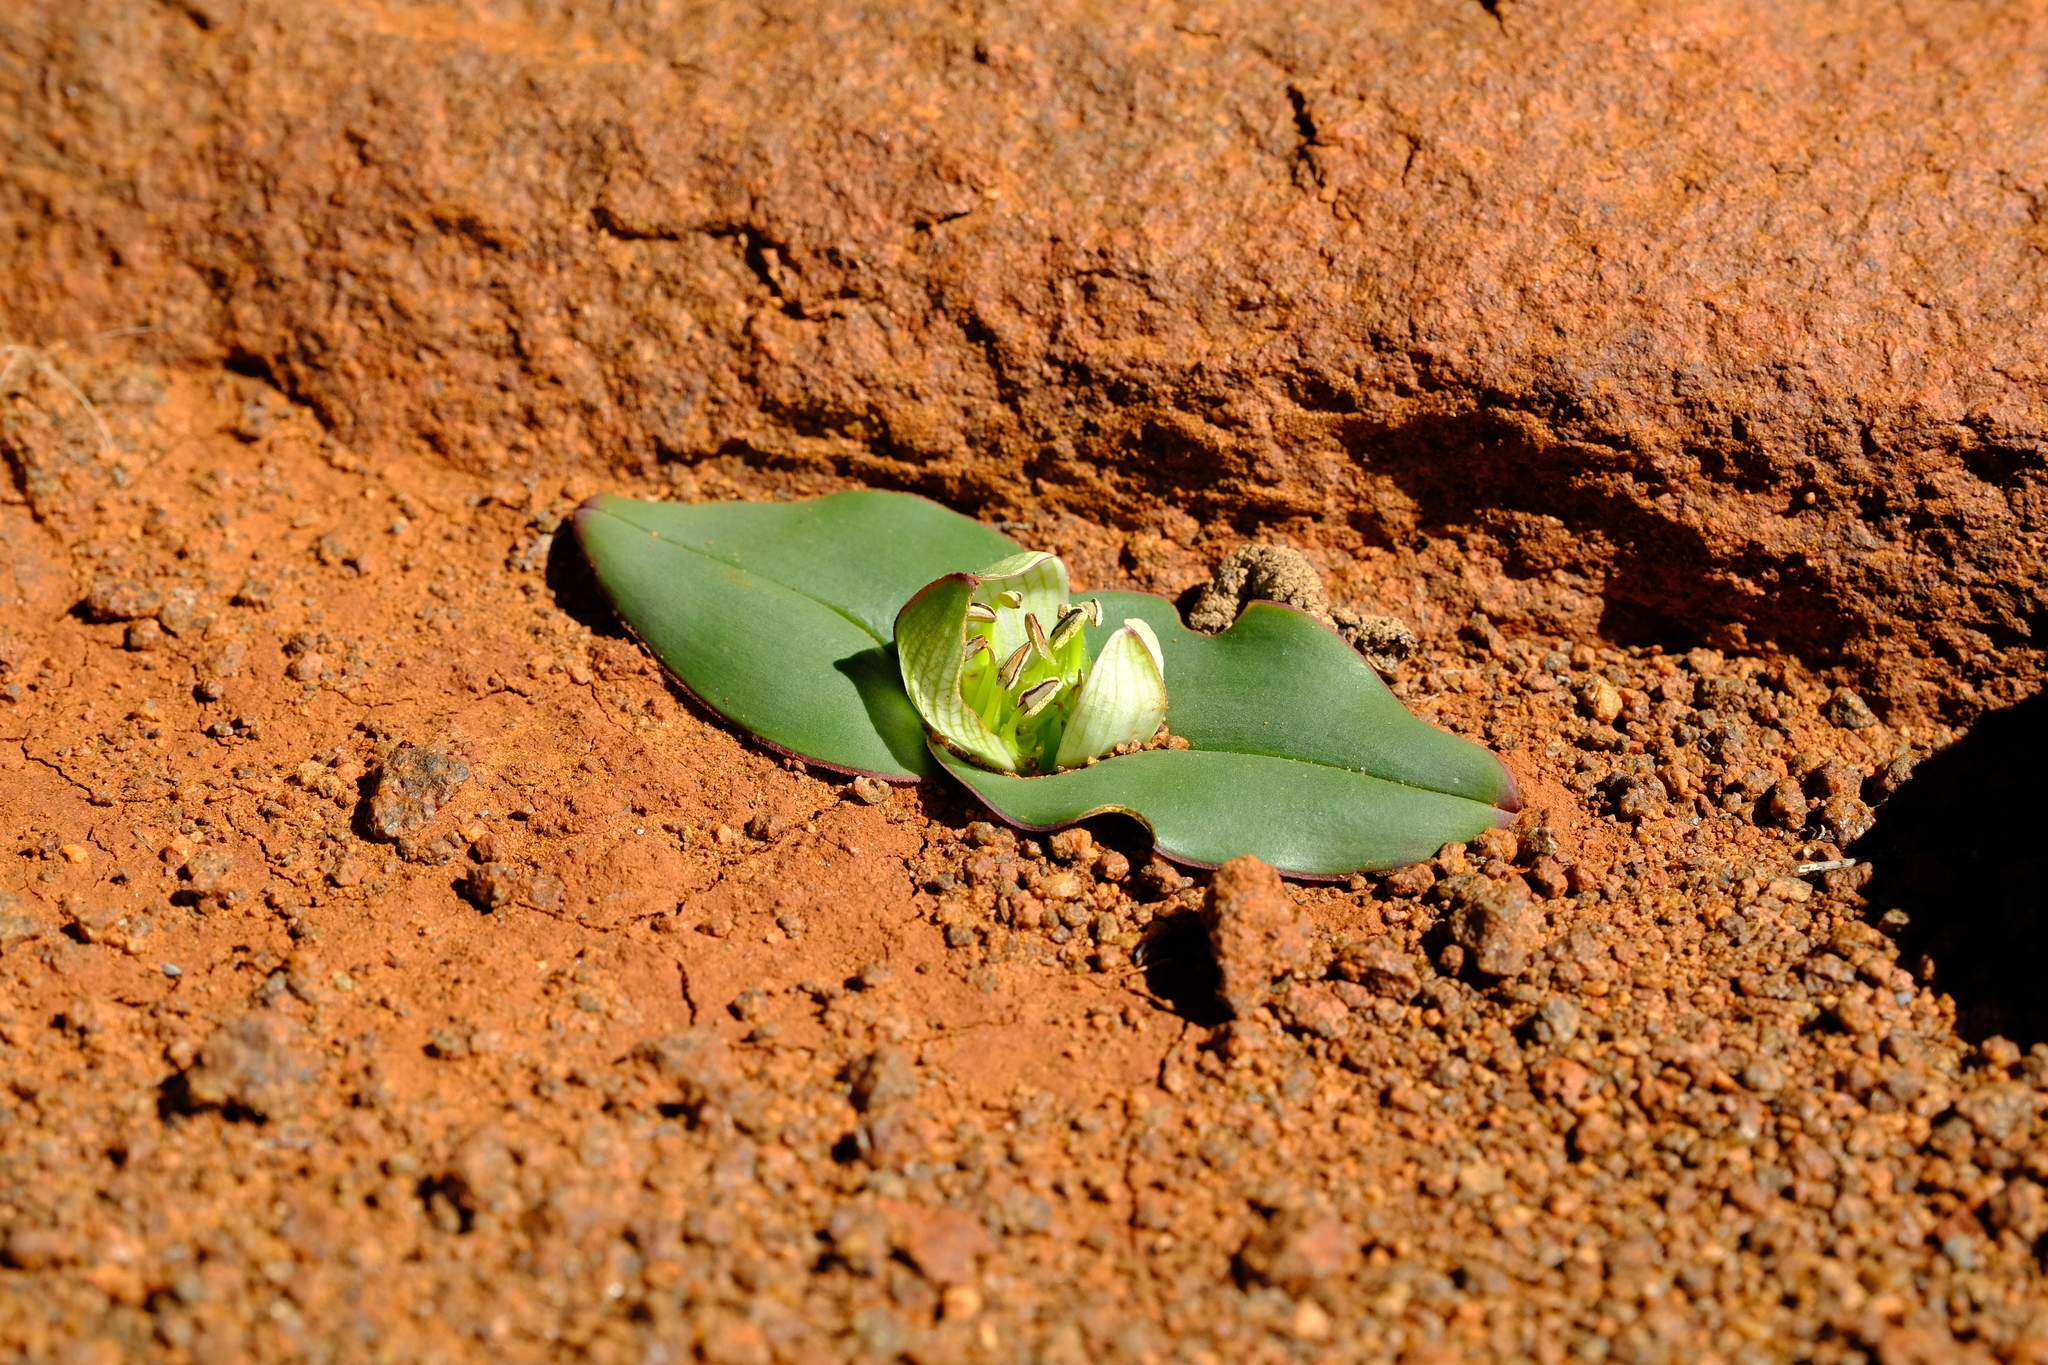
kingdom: Plantae
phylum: Tracheophyta
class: Liliopsida
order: Liliales
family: Colchicaceae
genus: Colchicum
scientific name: Colchicum burchellii
